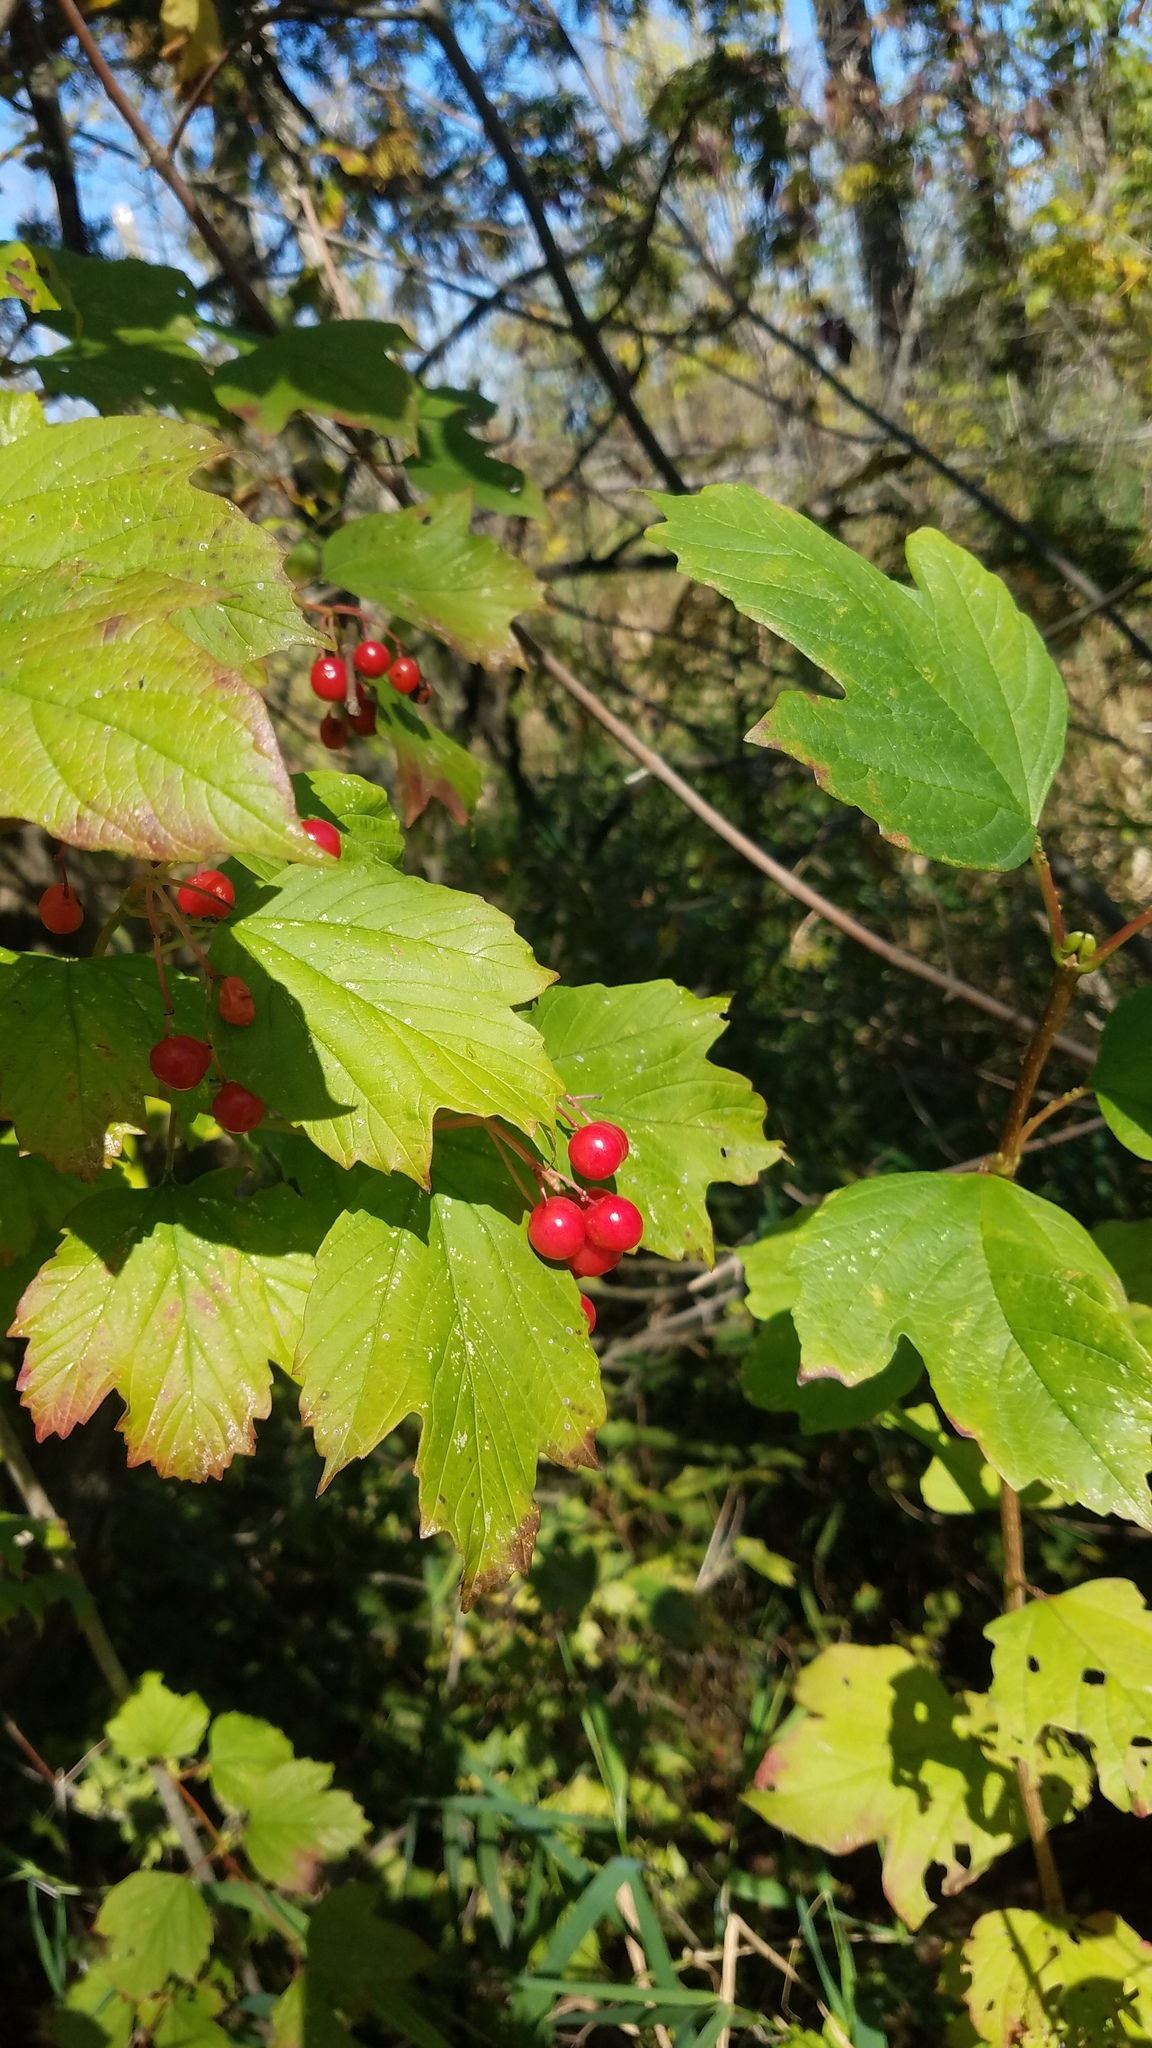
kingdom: Plantae
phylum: Tracheophyta
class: Magnoliopsida
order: Dipsacales
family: Viburnaceae
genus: Viburnum
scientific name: Viburnum opulus
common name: Guelder-rose
